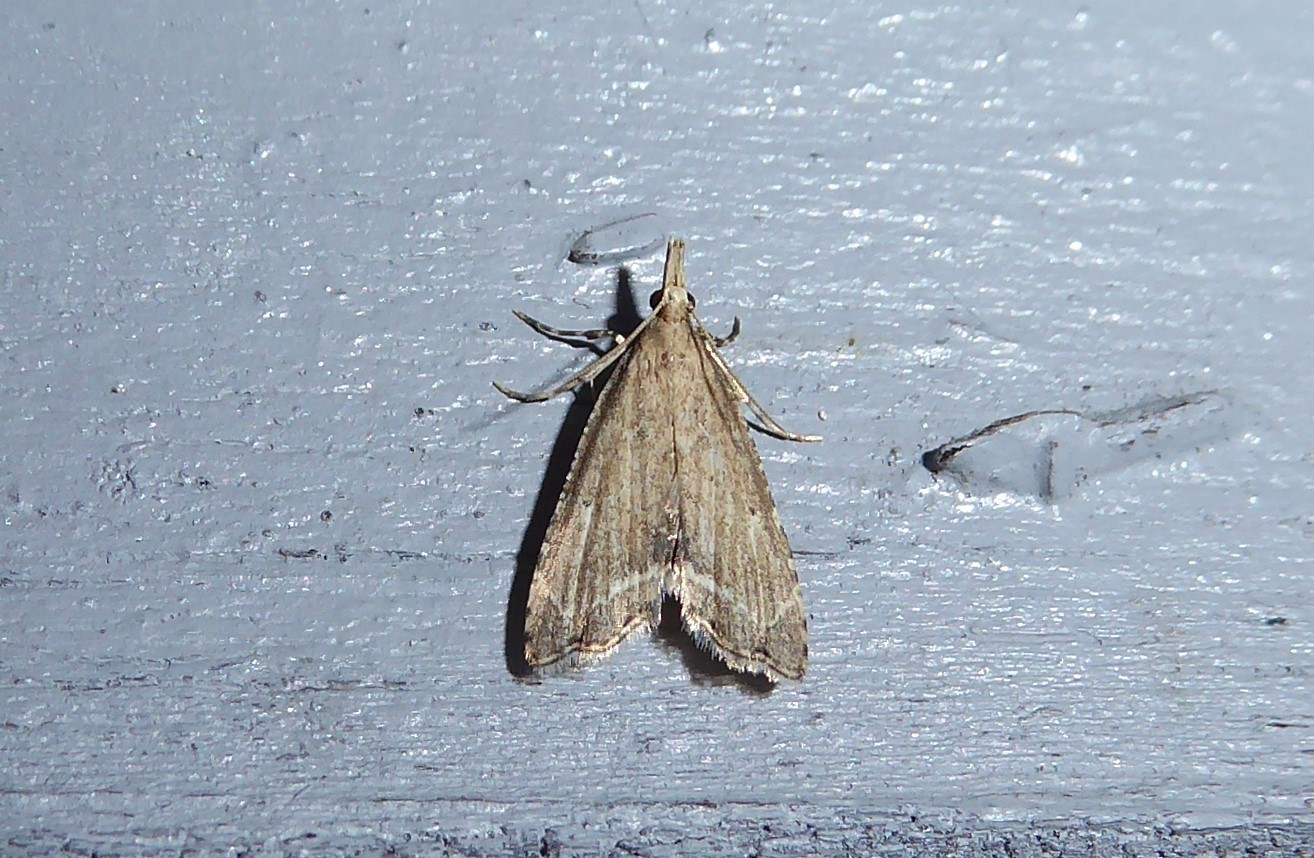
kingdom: Animalia
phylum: Arthropoda
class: Insecta
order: Lepidoptera
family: Crambidae
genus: Diplopseustis
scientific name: Diplopseustis perieresalis
